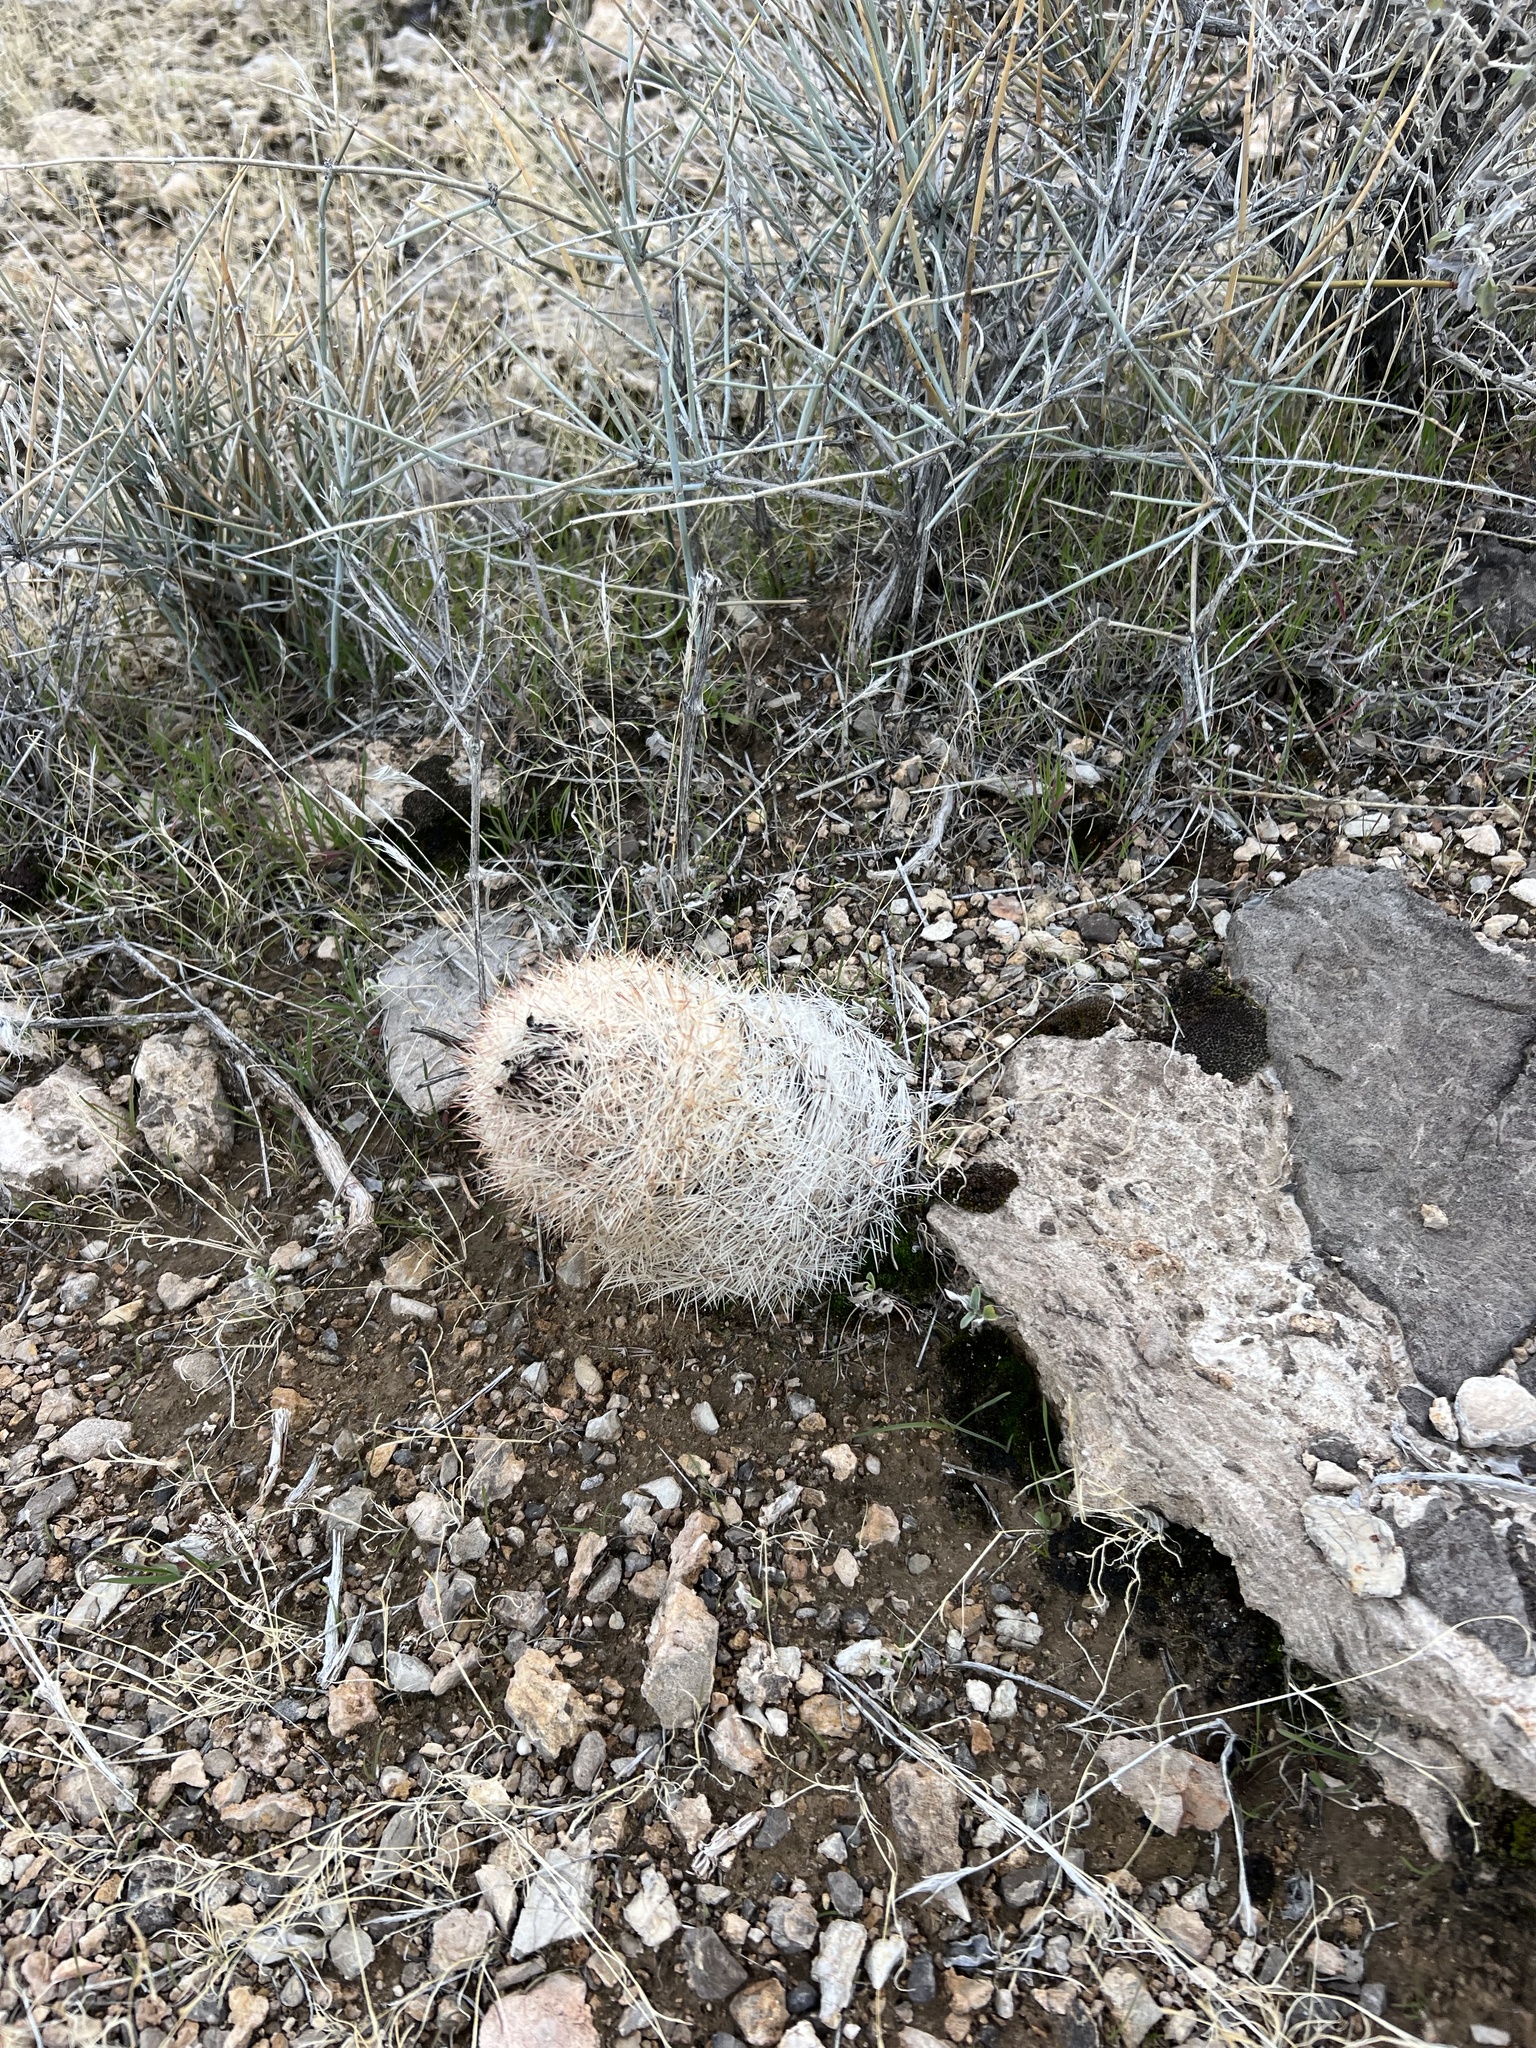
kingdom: Plantae
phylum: Tracheophyta
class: Magnoliopsida
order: Caryophyllales
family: Cactaceae
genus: Pelecyphora
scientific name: Pelecyphora dasyacantha
